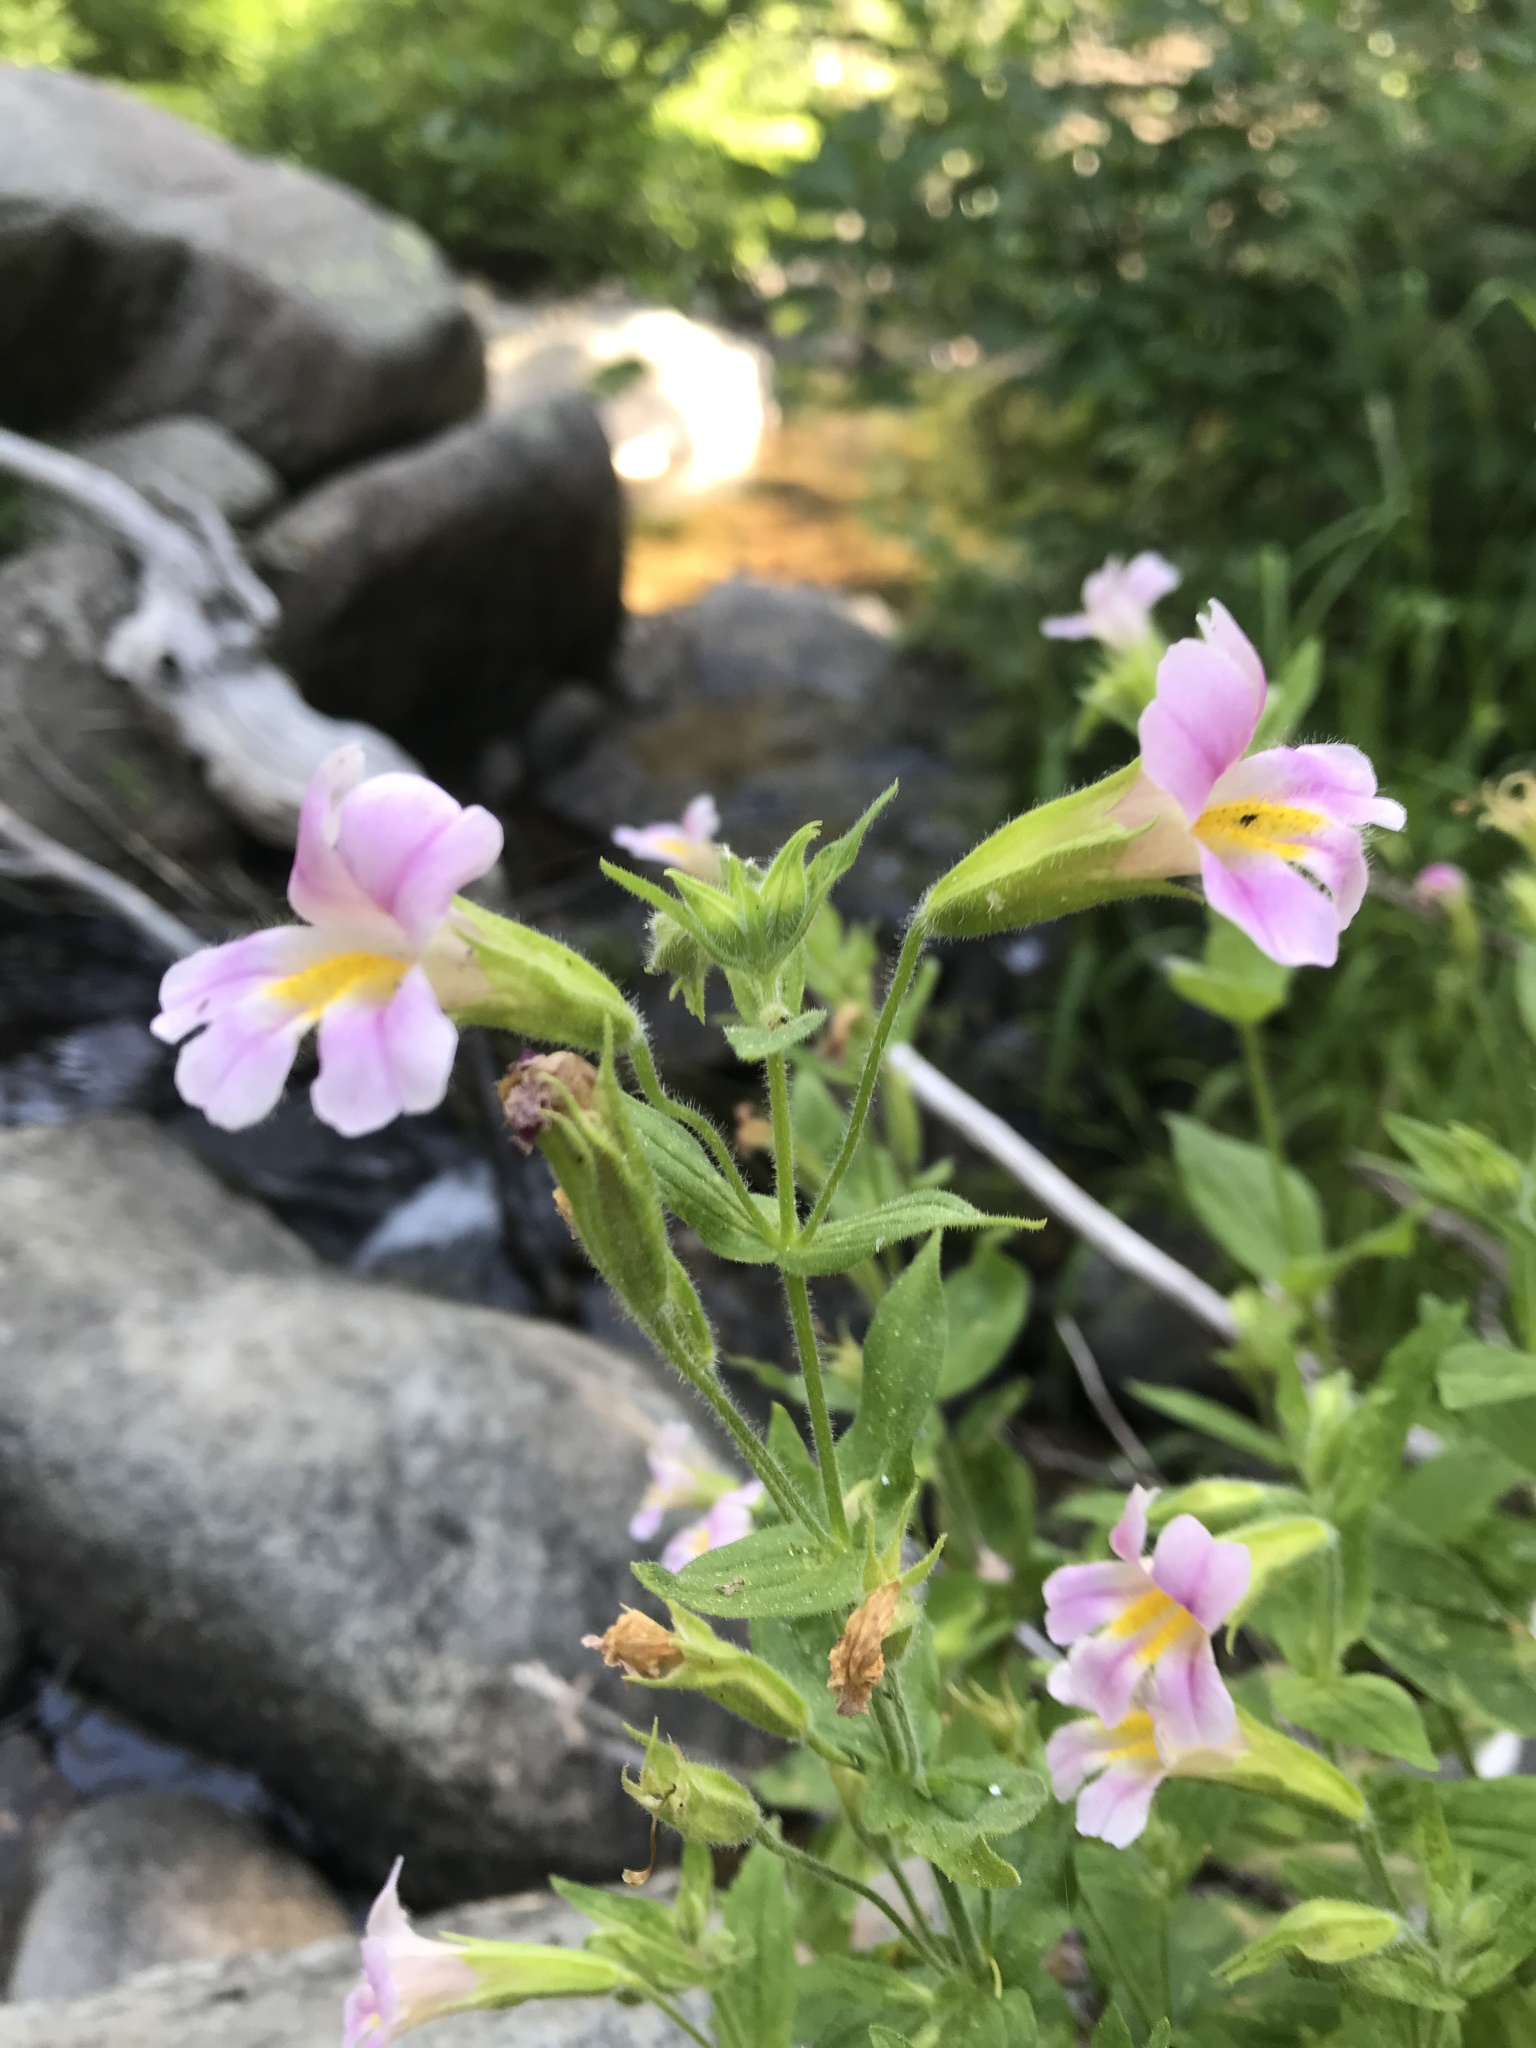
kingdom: Plantae
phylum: Tracheophyta
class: Magnoliopsida
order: Lamiales
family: Phrymaceae
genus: Erythranthe
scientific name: Erythranthe erubescens
